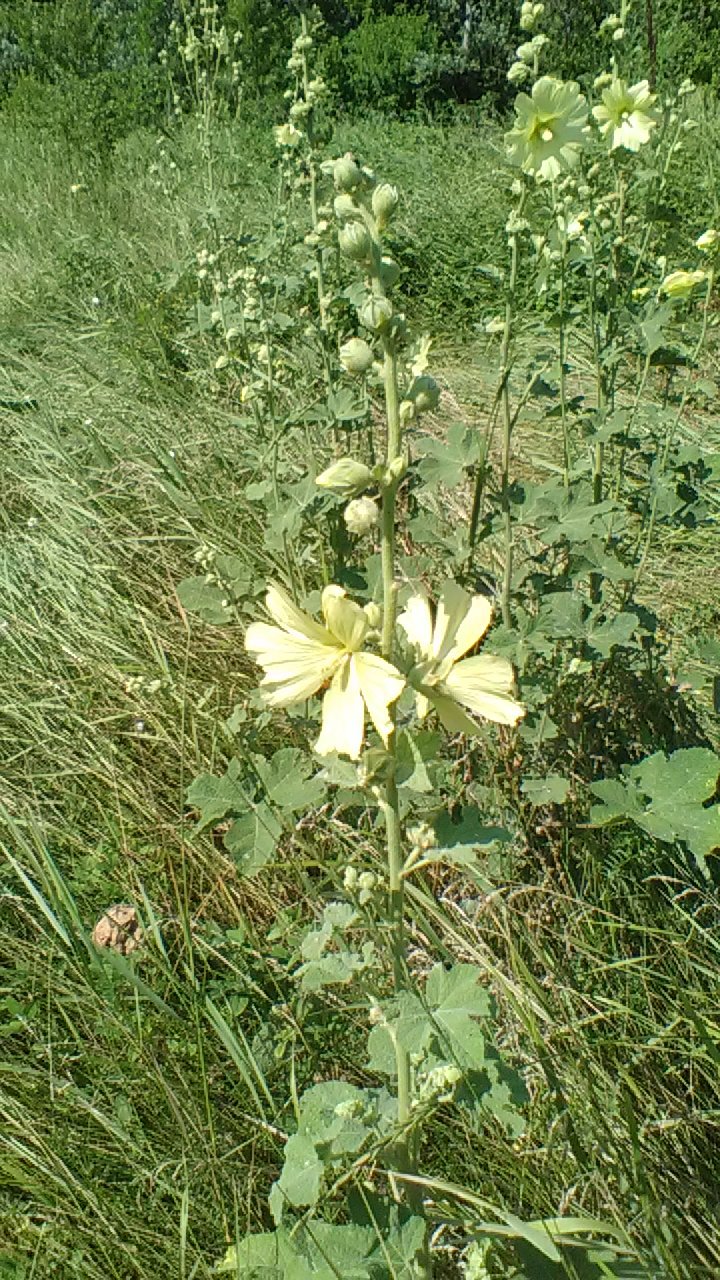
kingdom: Plantae
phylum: Tracheophyta
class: Magnoliopsida
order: Malvales
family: Malvaceae
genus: Alcea
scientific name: Alcea rugosa
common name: Russian hollyhock
